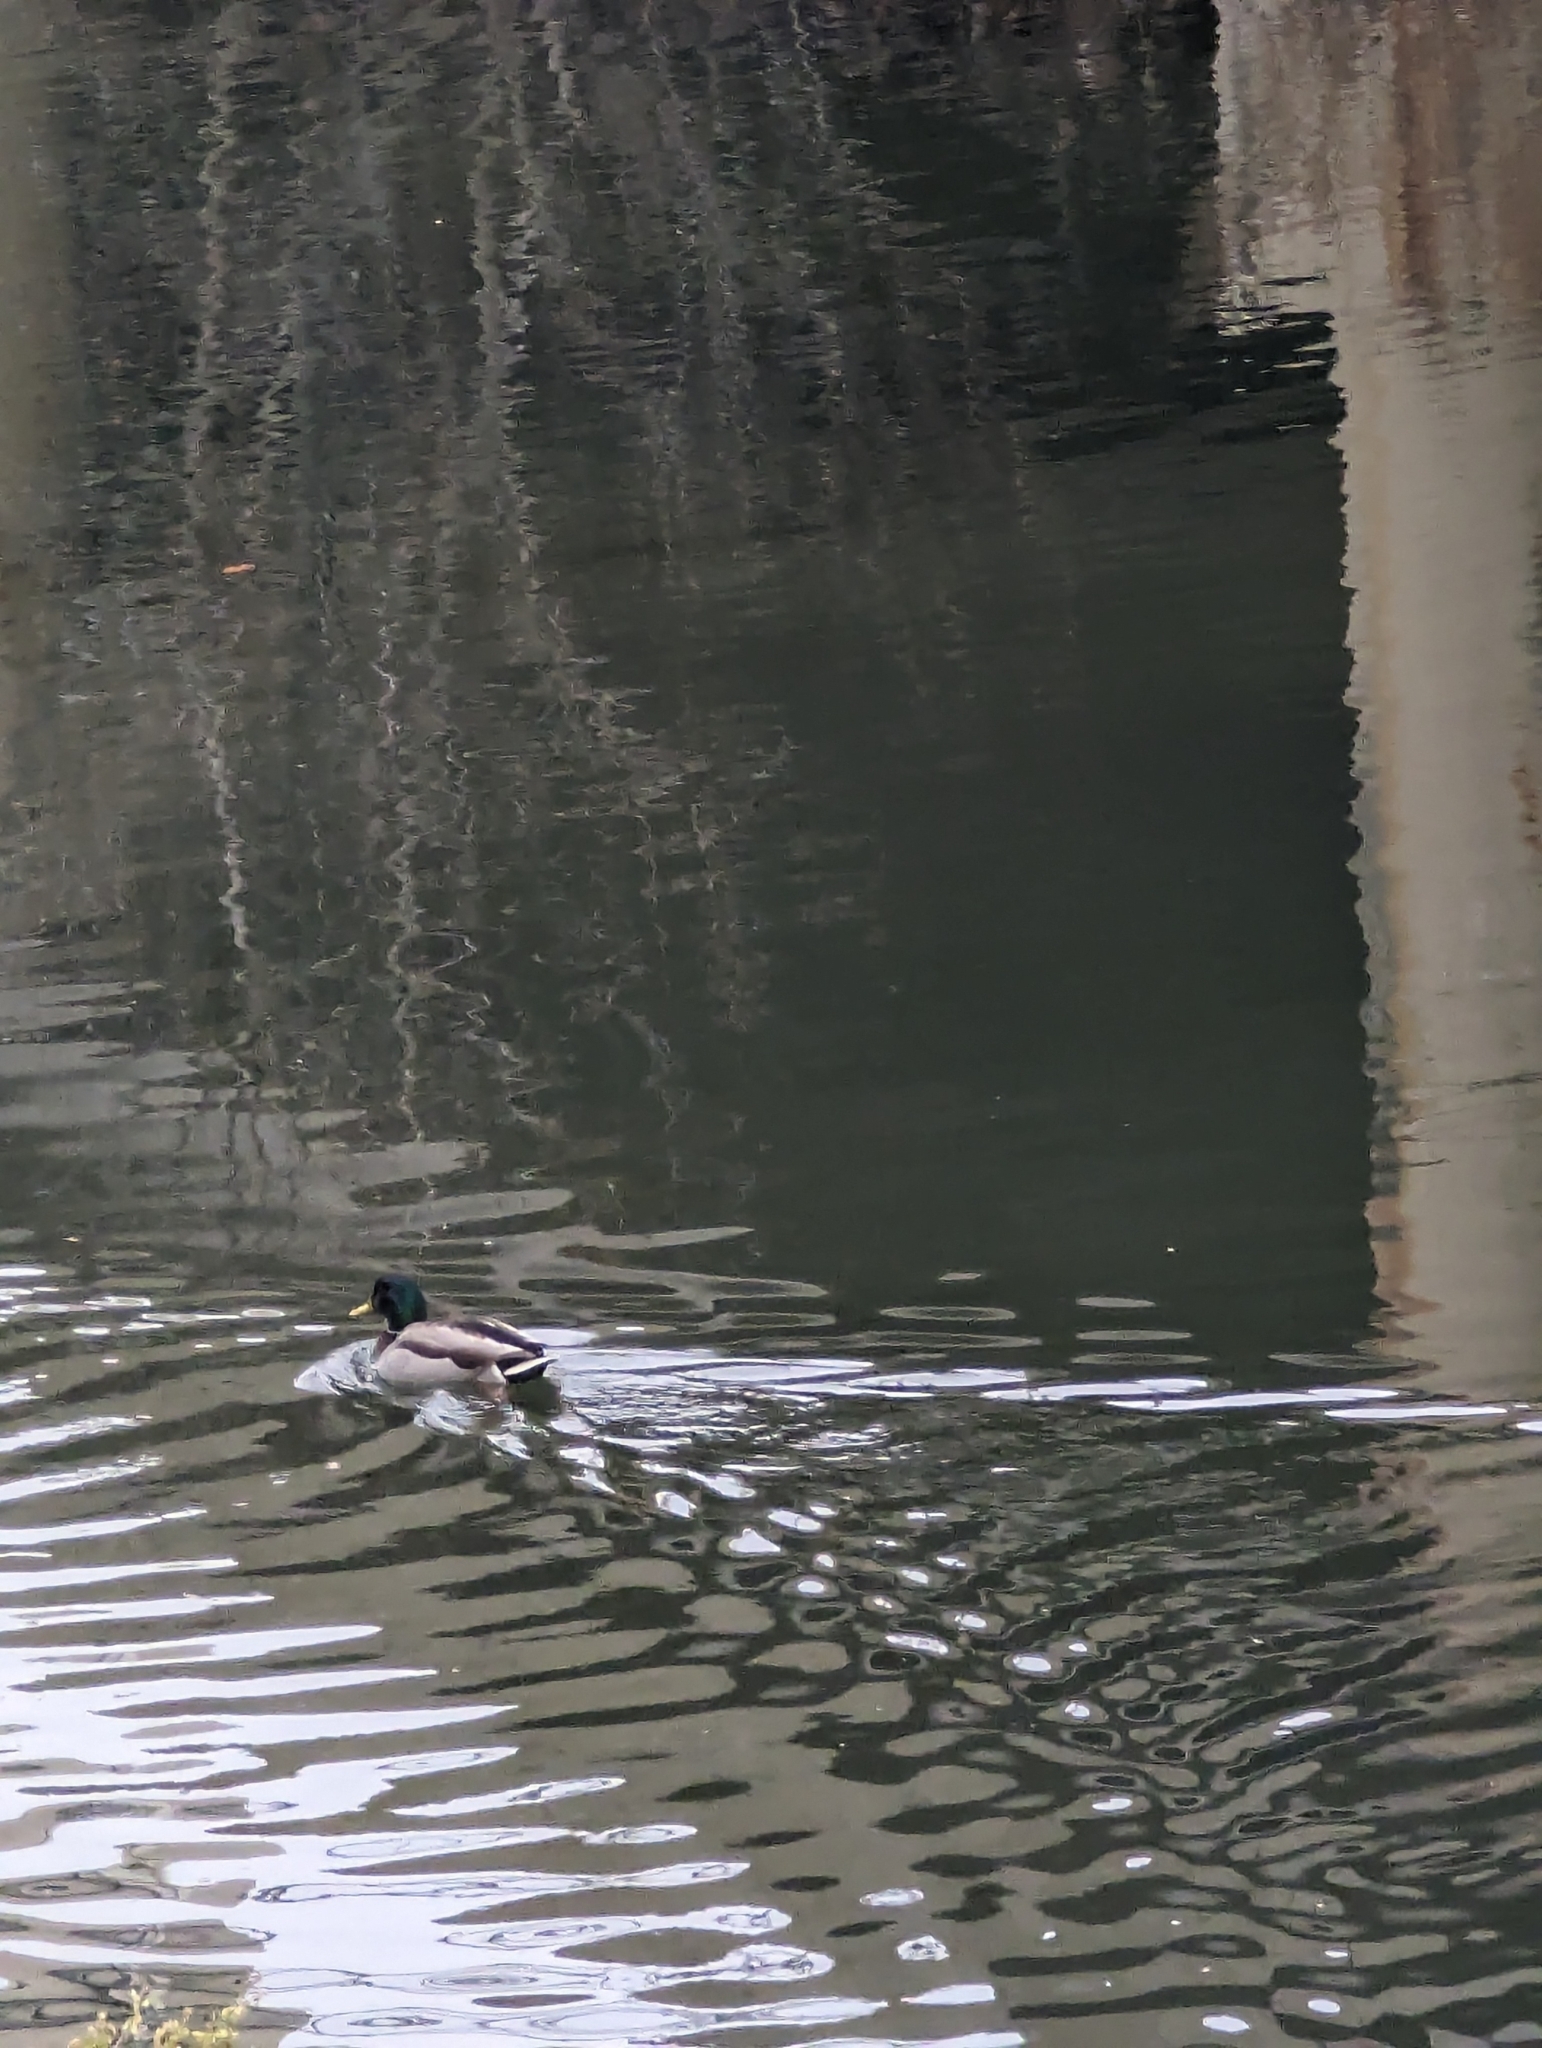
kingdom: Animalia
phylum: Chordata
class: Aves
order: Anseriformes
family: Anatidae
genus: Anas
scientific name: Anas platyrhynchos
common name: Mallard
